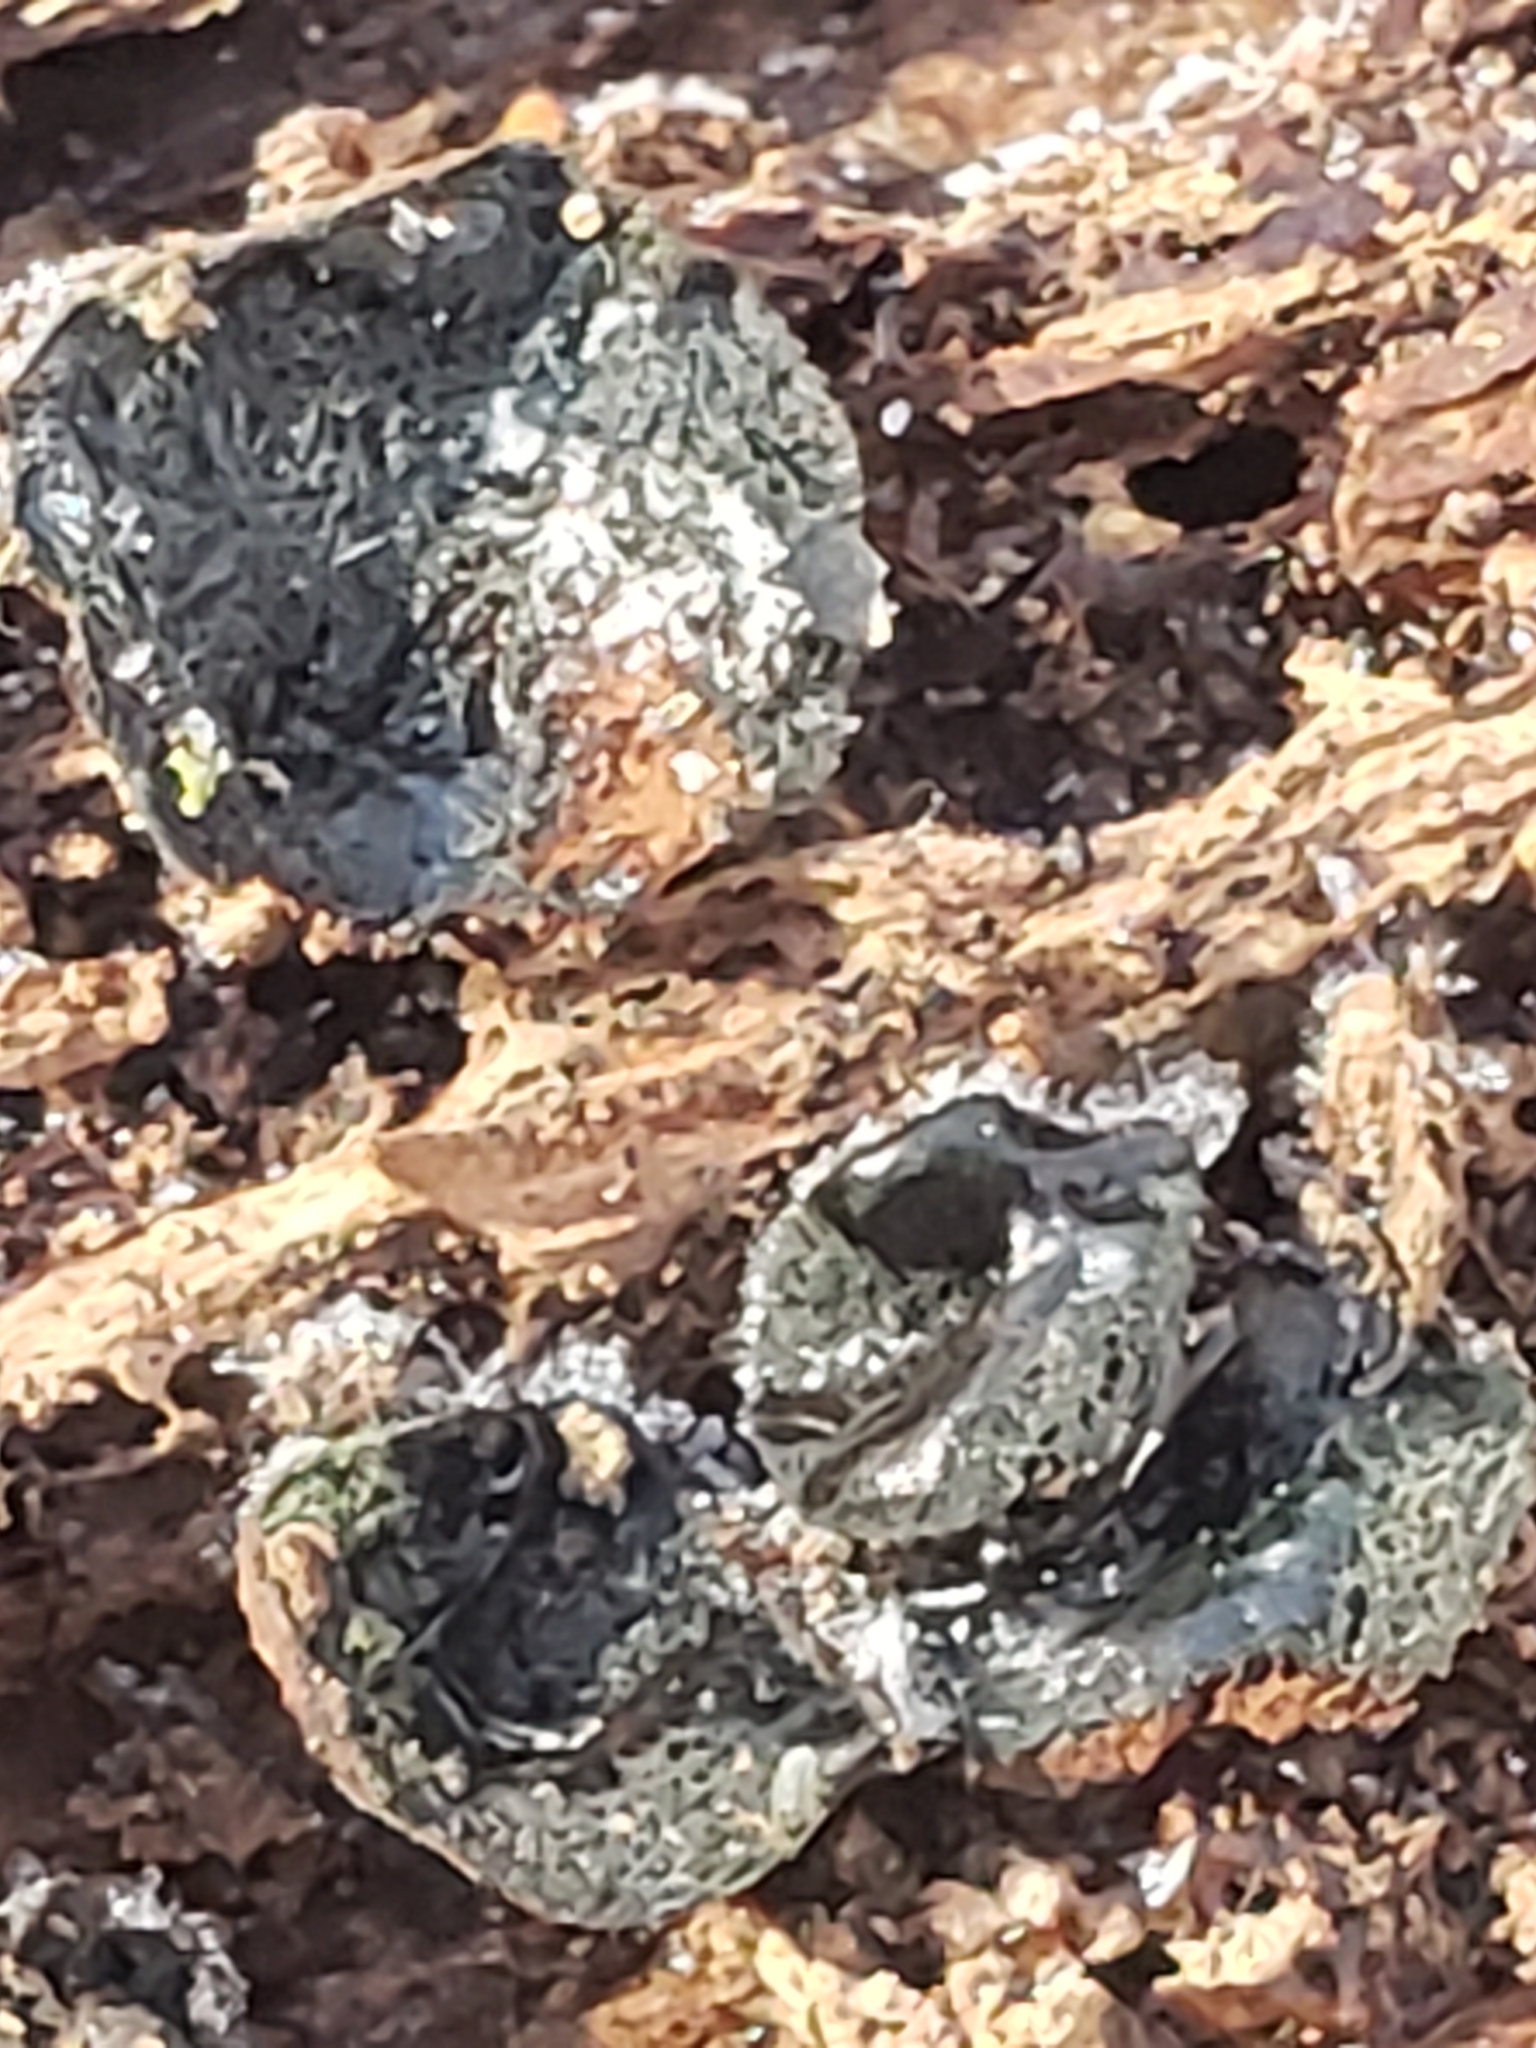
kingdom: Fungi
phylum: Ascomycota
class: Leotiomycetes
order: Helotiales
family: Cenangiaceae
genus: Chlorencoelia
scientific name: Chlorencoelia torta
